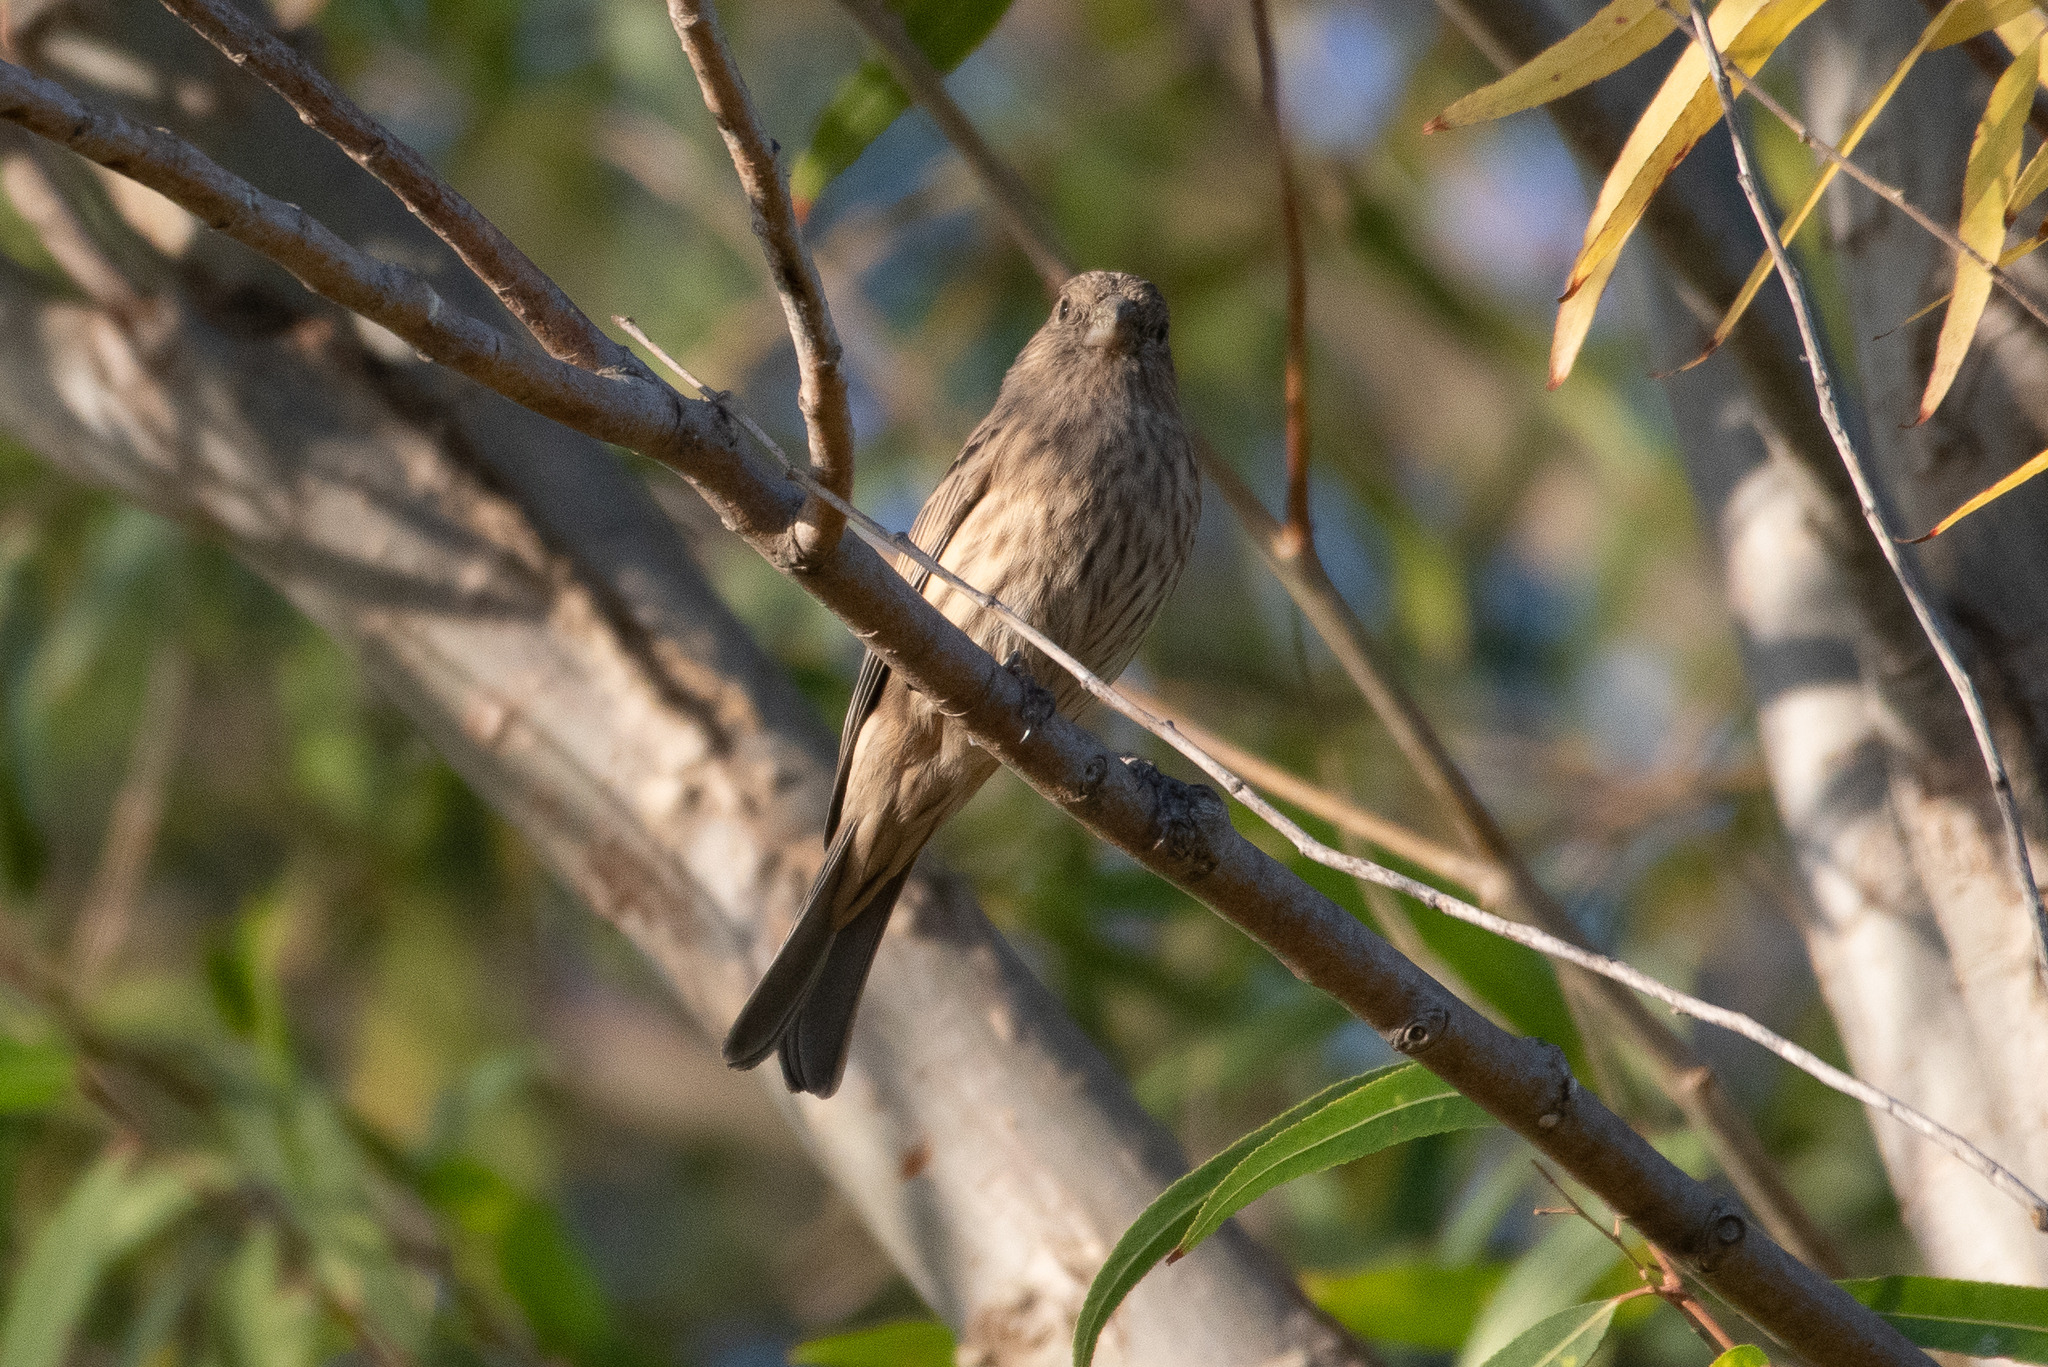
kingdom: Animalia
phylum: Chordata
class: Aves
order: Passeriformes
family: Fringillidae
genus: Haemorhous
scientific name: Haemorhous mexicanus
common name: House finch
